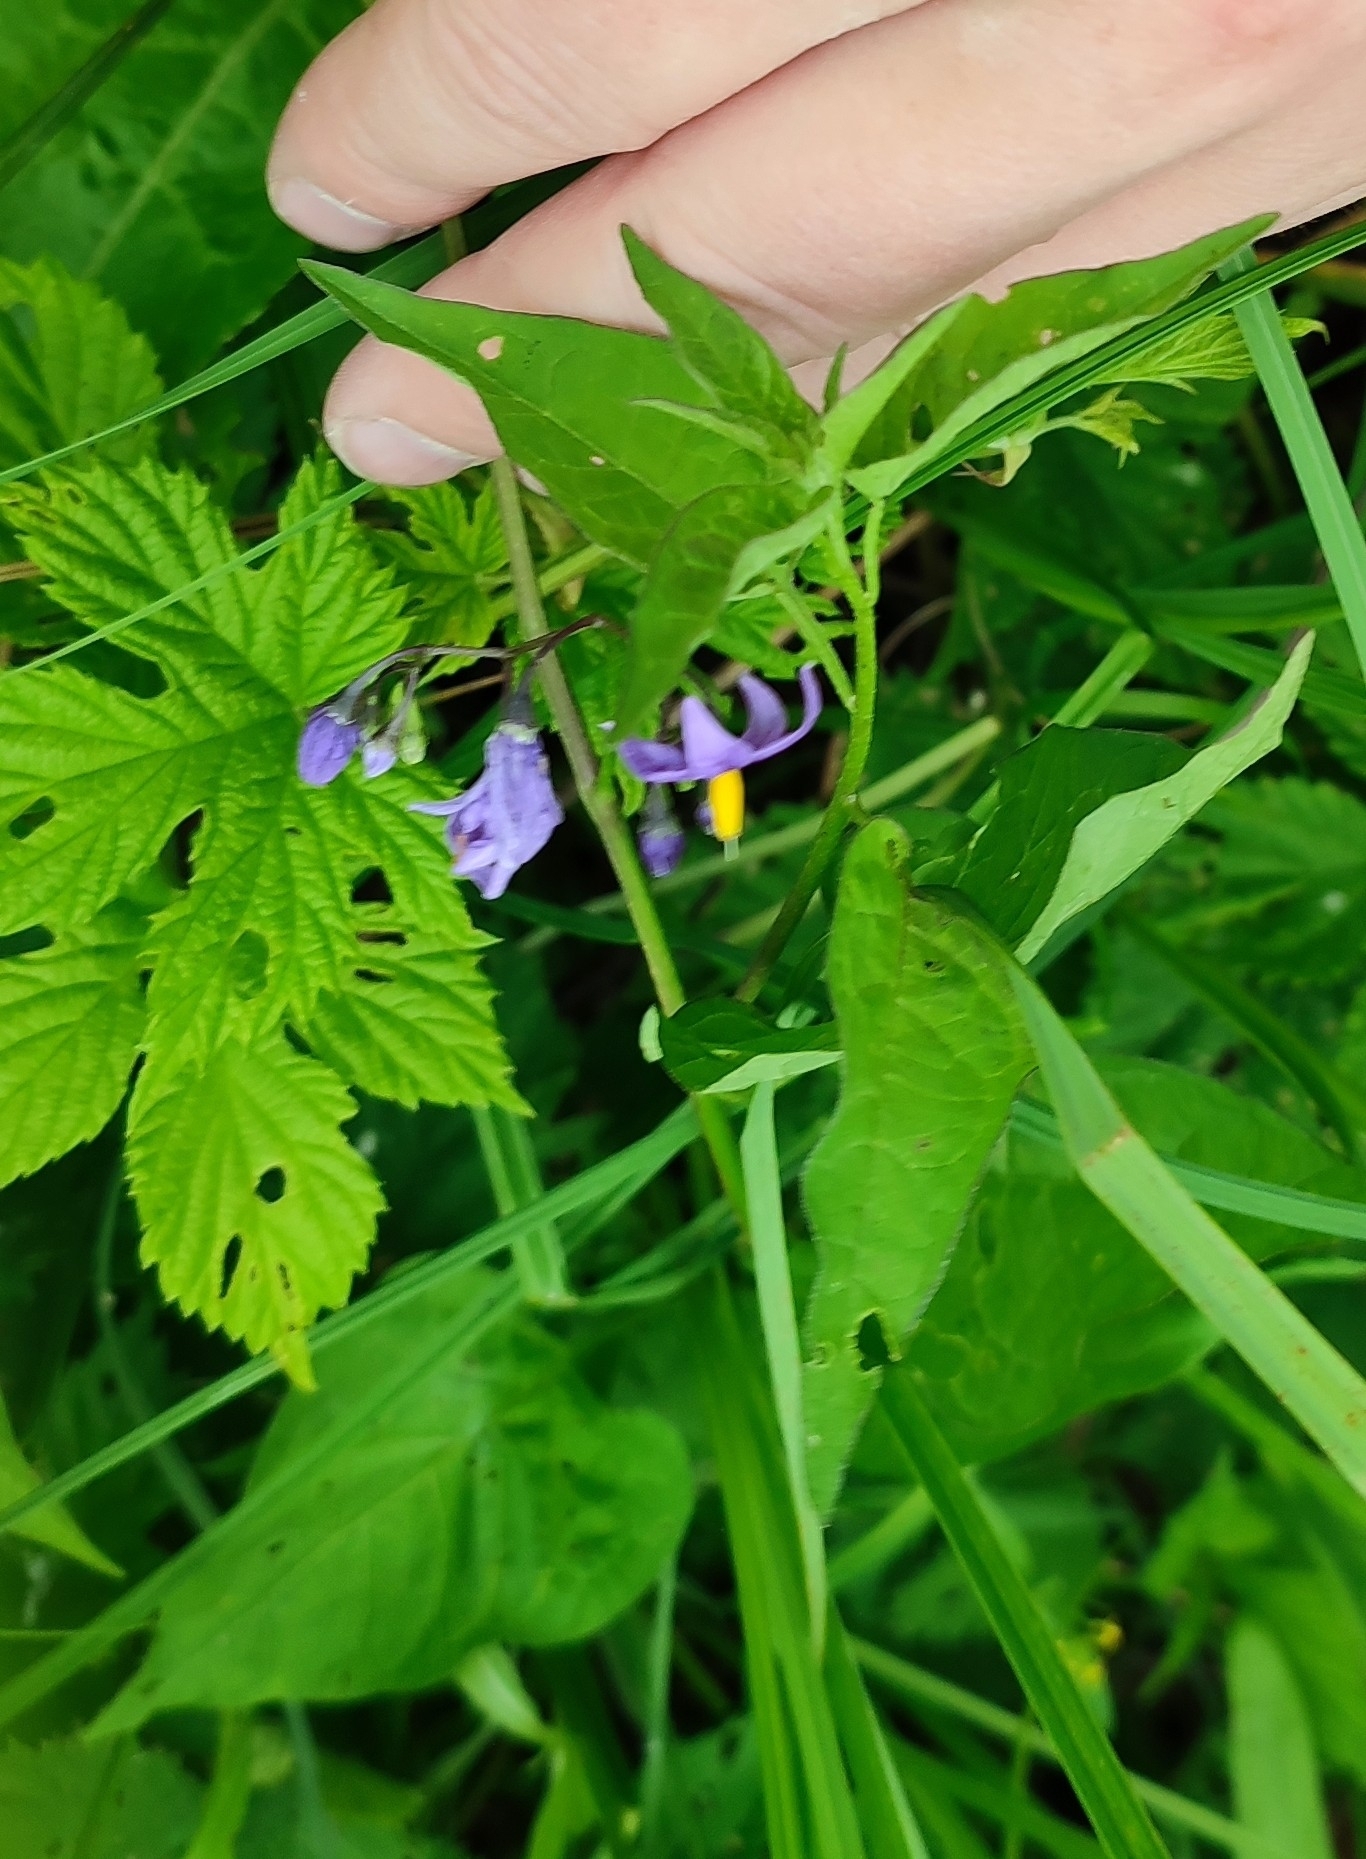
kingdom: Plantae
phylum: Tracheophyta
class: Magnoliopsida
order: Solanales
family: Solanaceae
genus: Solanum
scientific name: Solanum dulcamara
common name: Climbing nightshade
